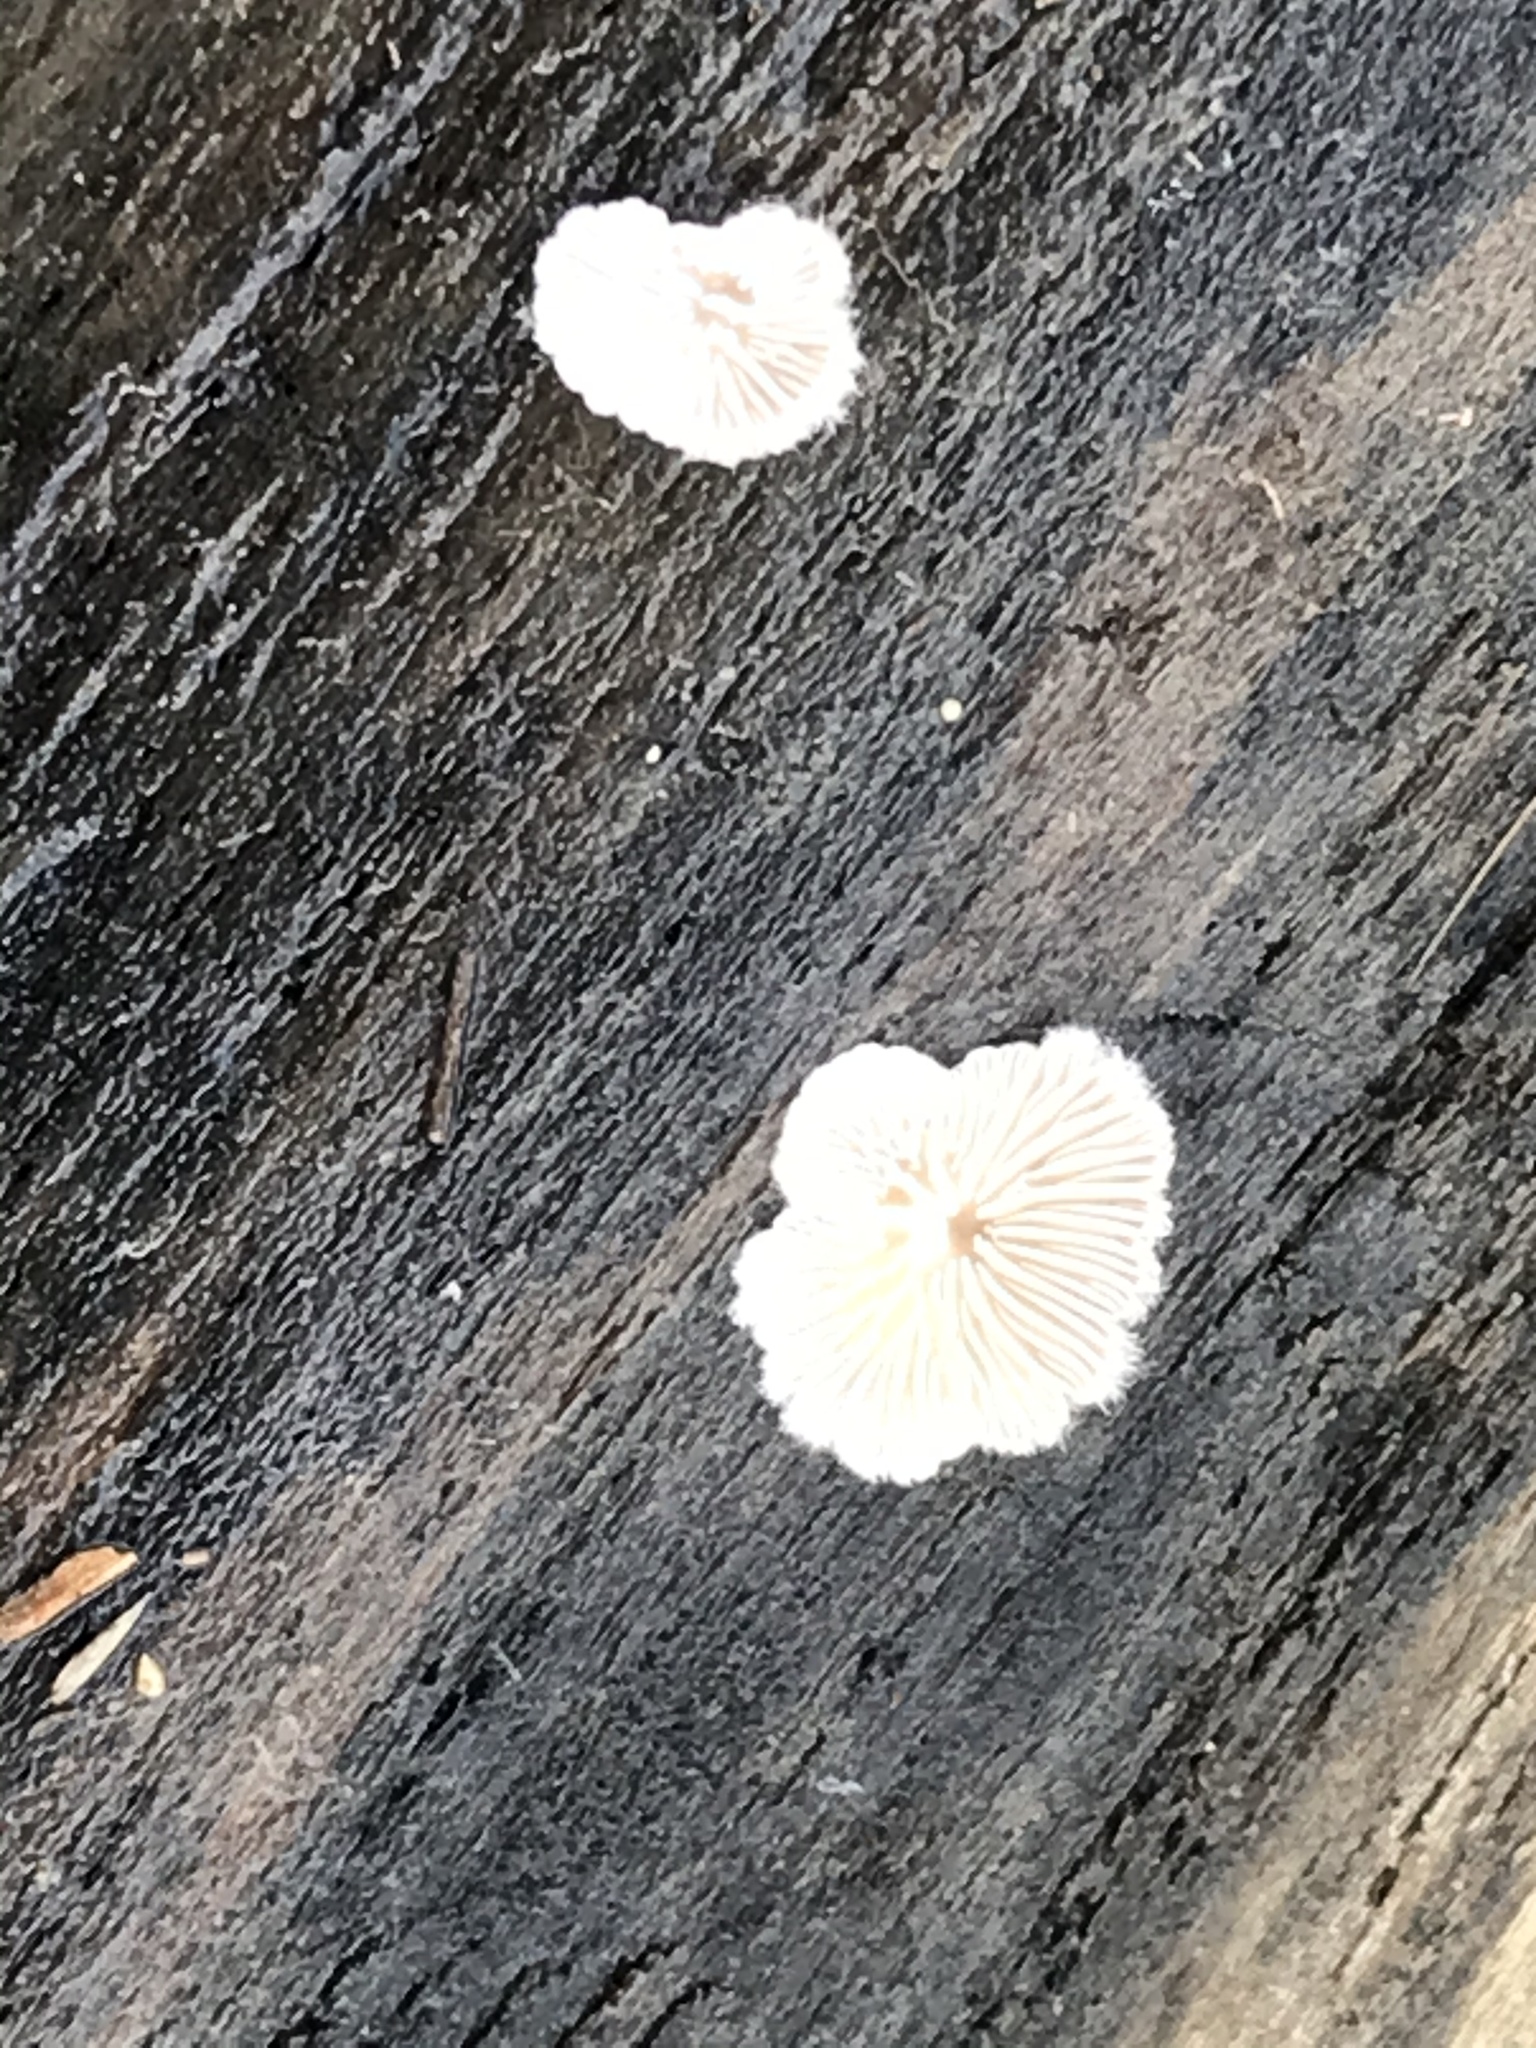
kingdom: Fungi
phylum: Basidiomycota
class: Agaricomycetes
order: Agaricales
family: Schizophyllaceae
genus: Schizophyllum
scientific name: Schizophyllum commune
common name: Common porecrust
